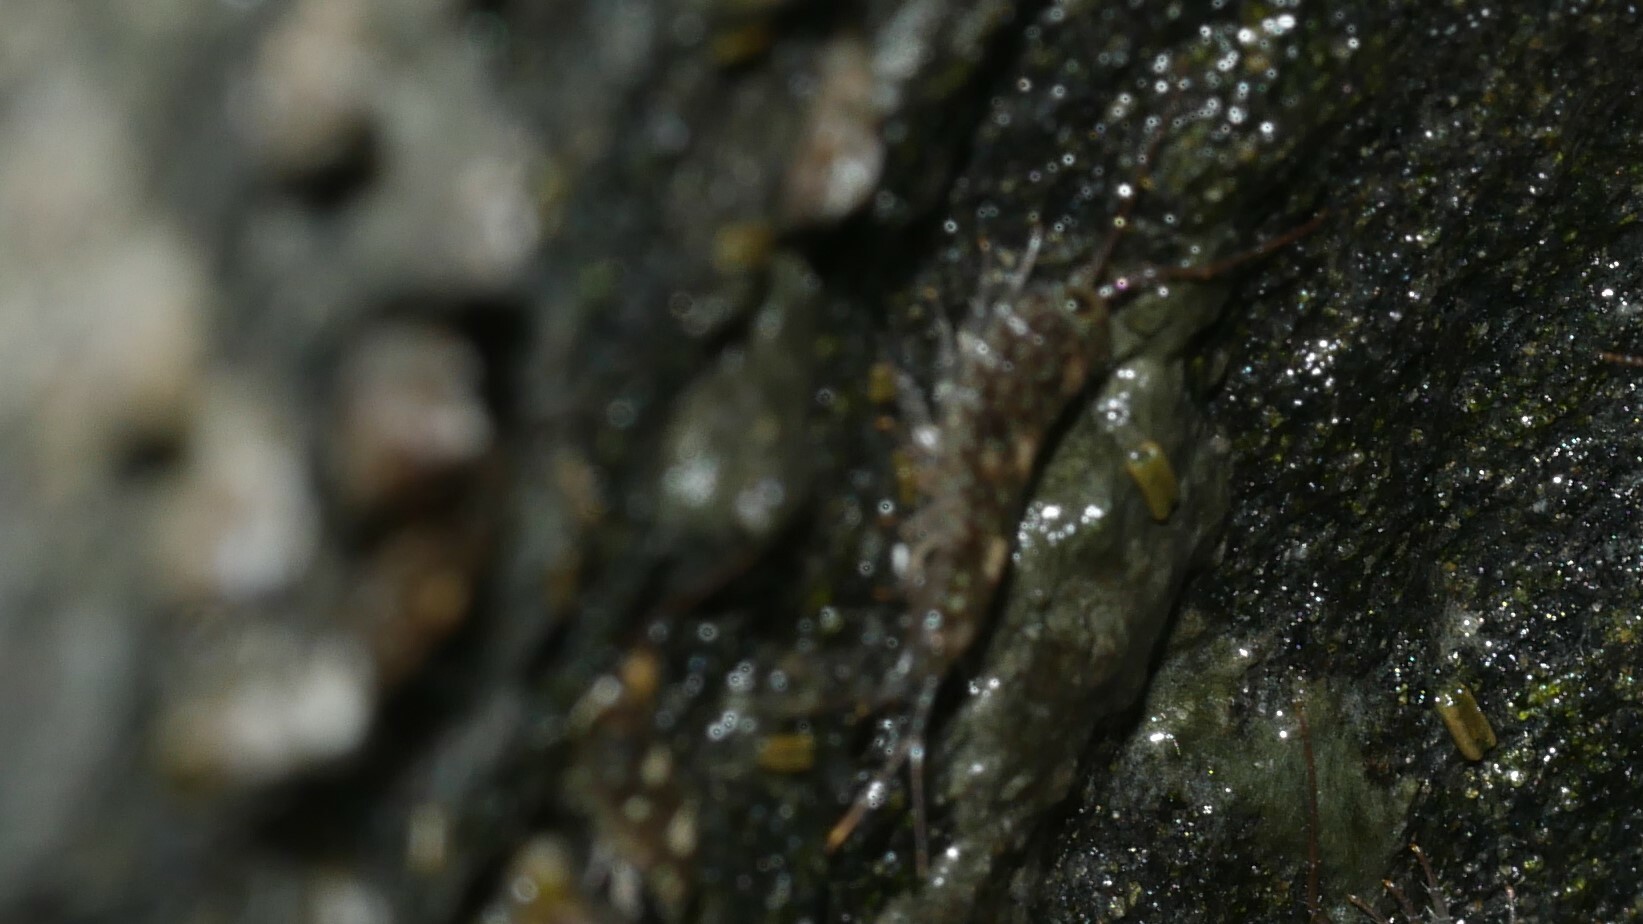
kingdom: Animalia
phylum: Arthropoda
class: Malacostraca
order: Isopoda
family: Ligiidae
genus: Ligia
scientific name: Ligia exotica
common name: Wharf roach
